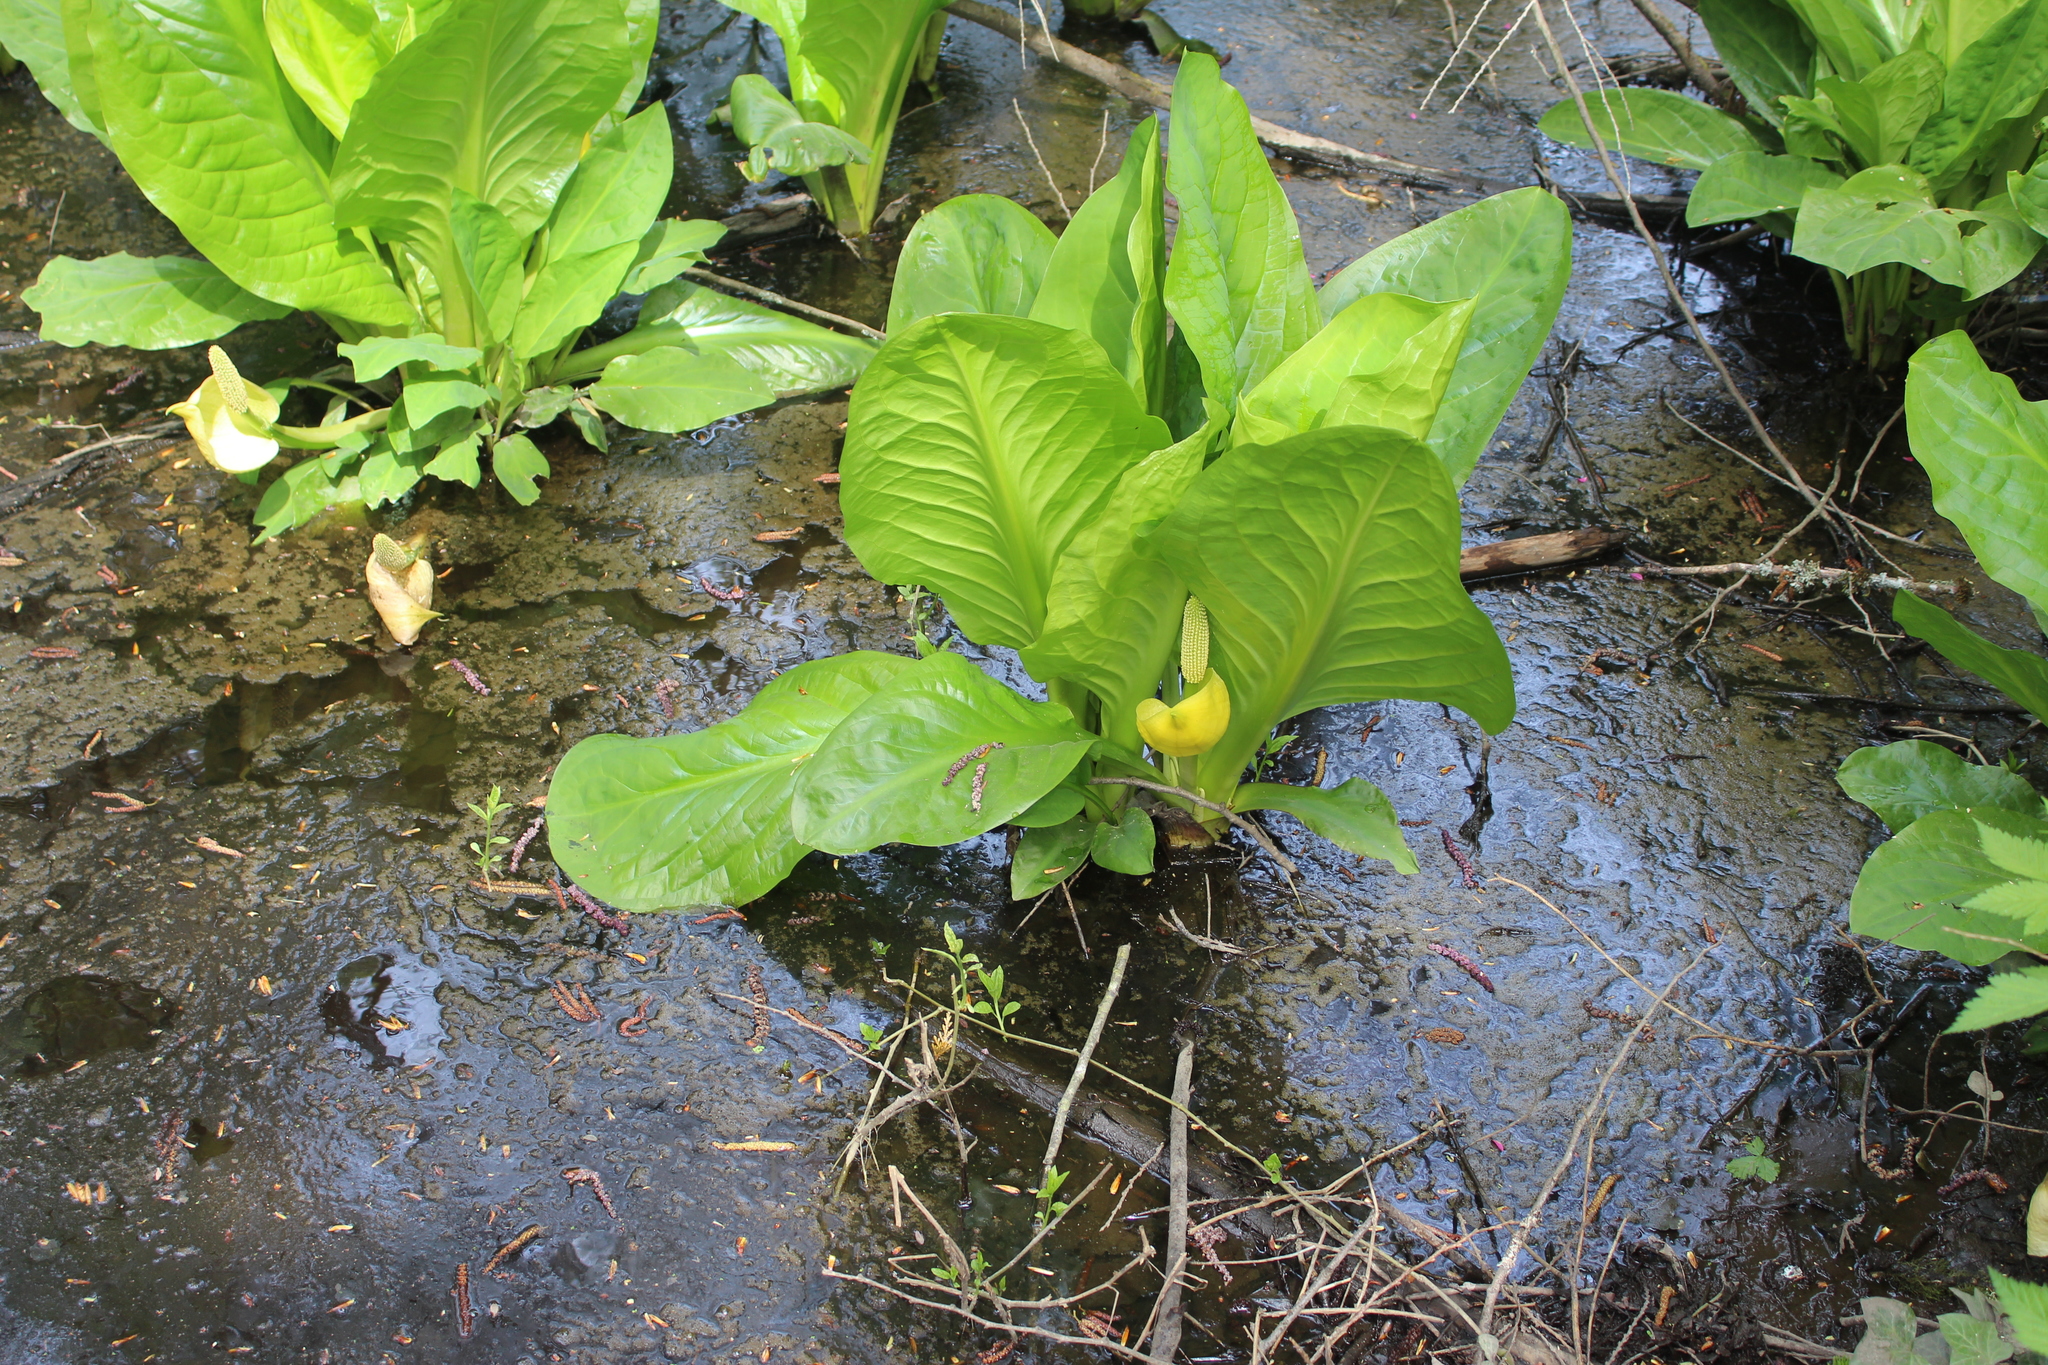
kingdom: Plantae
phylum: Tracheophyta
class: Liliopsida
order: Alismatales
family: Araceae
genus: Lysichiton
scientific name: Lysichiton americanus
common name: American skunk cabbage
